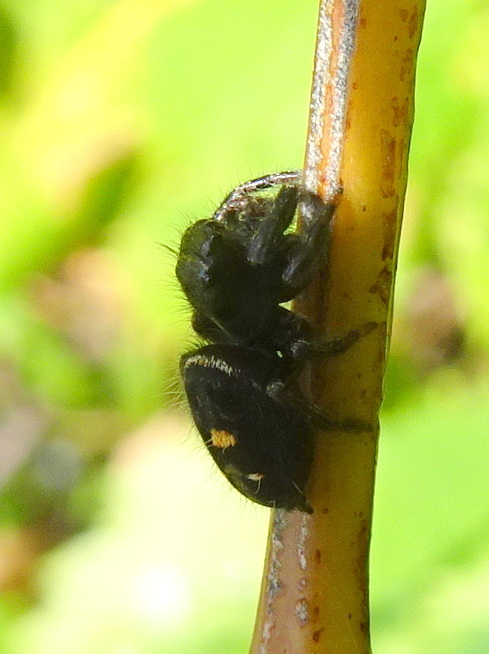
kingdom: Animalia
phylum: Arthropoda
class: Arachnida
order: Araneae
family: Salticidae
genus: Phidippus
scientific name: Phidippus audax
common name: Bold jumper
